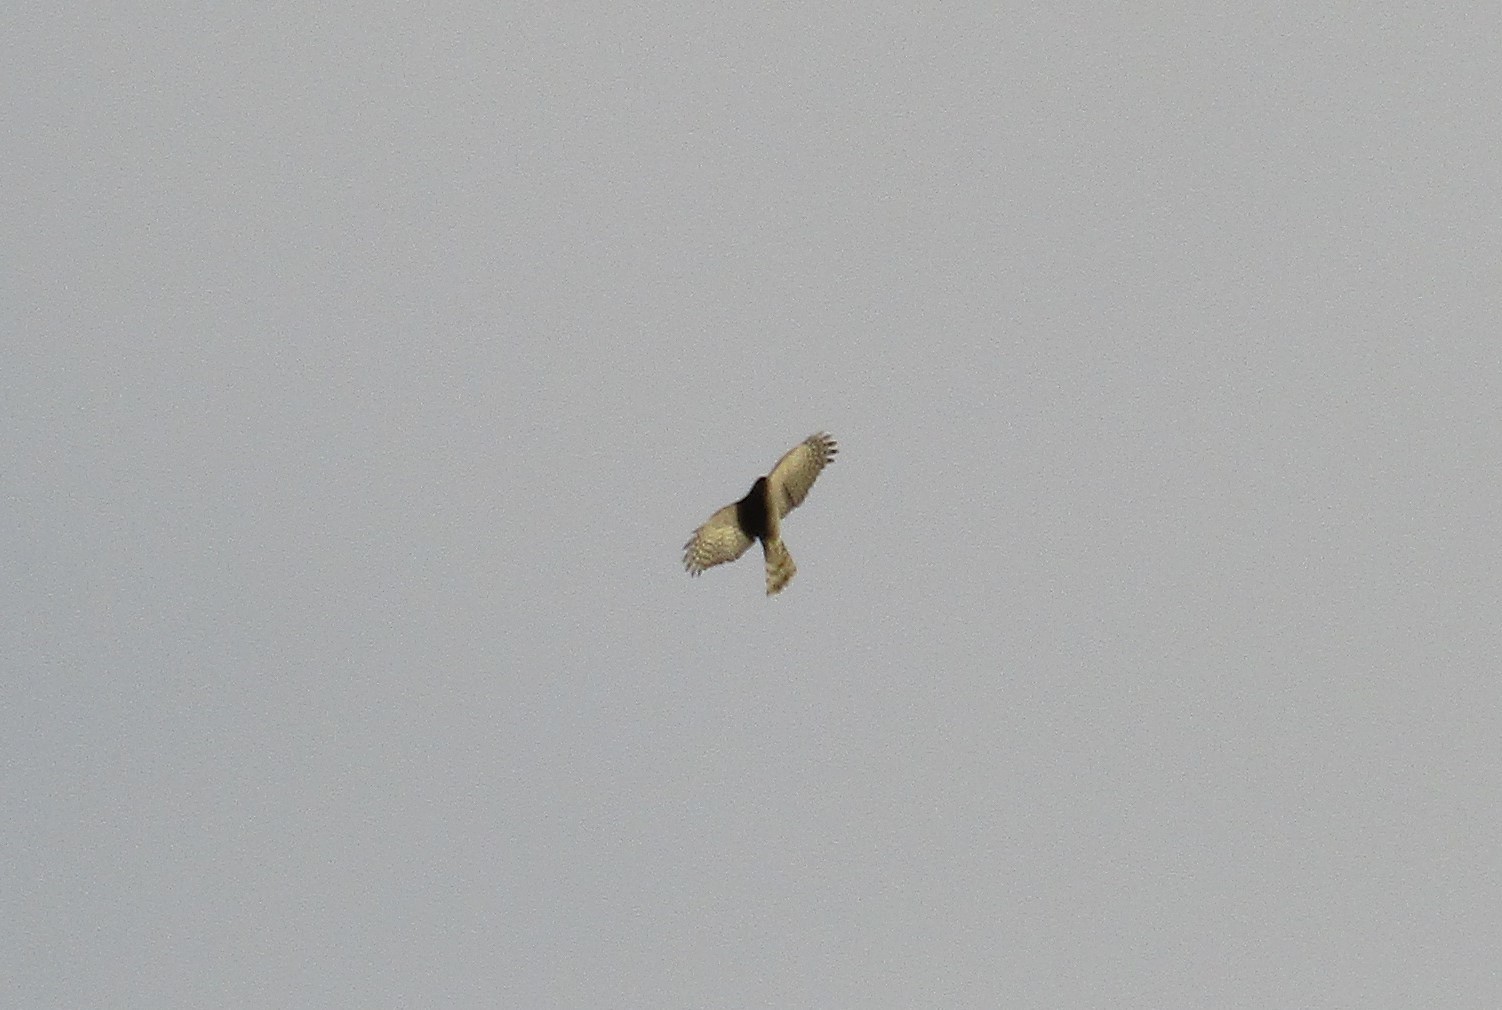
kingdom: Animalia
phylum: Chordata
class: Aves
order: Accipitriformes
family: Accipitridae
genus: Accipiter
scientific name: Accipiter nisus
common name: Eurasian sparrowhawk
